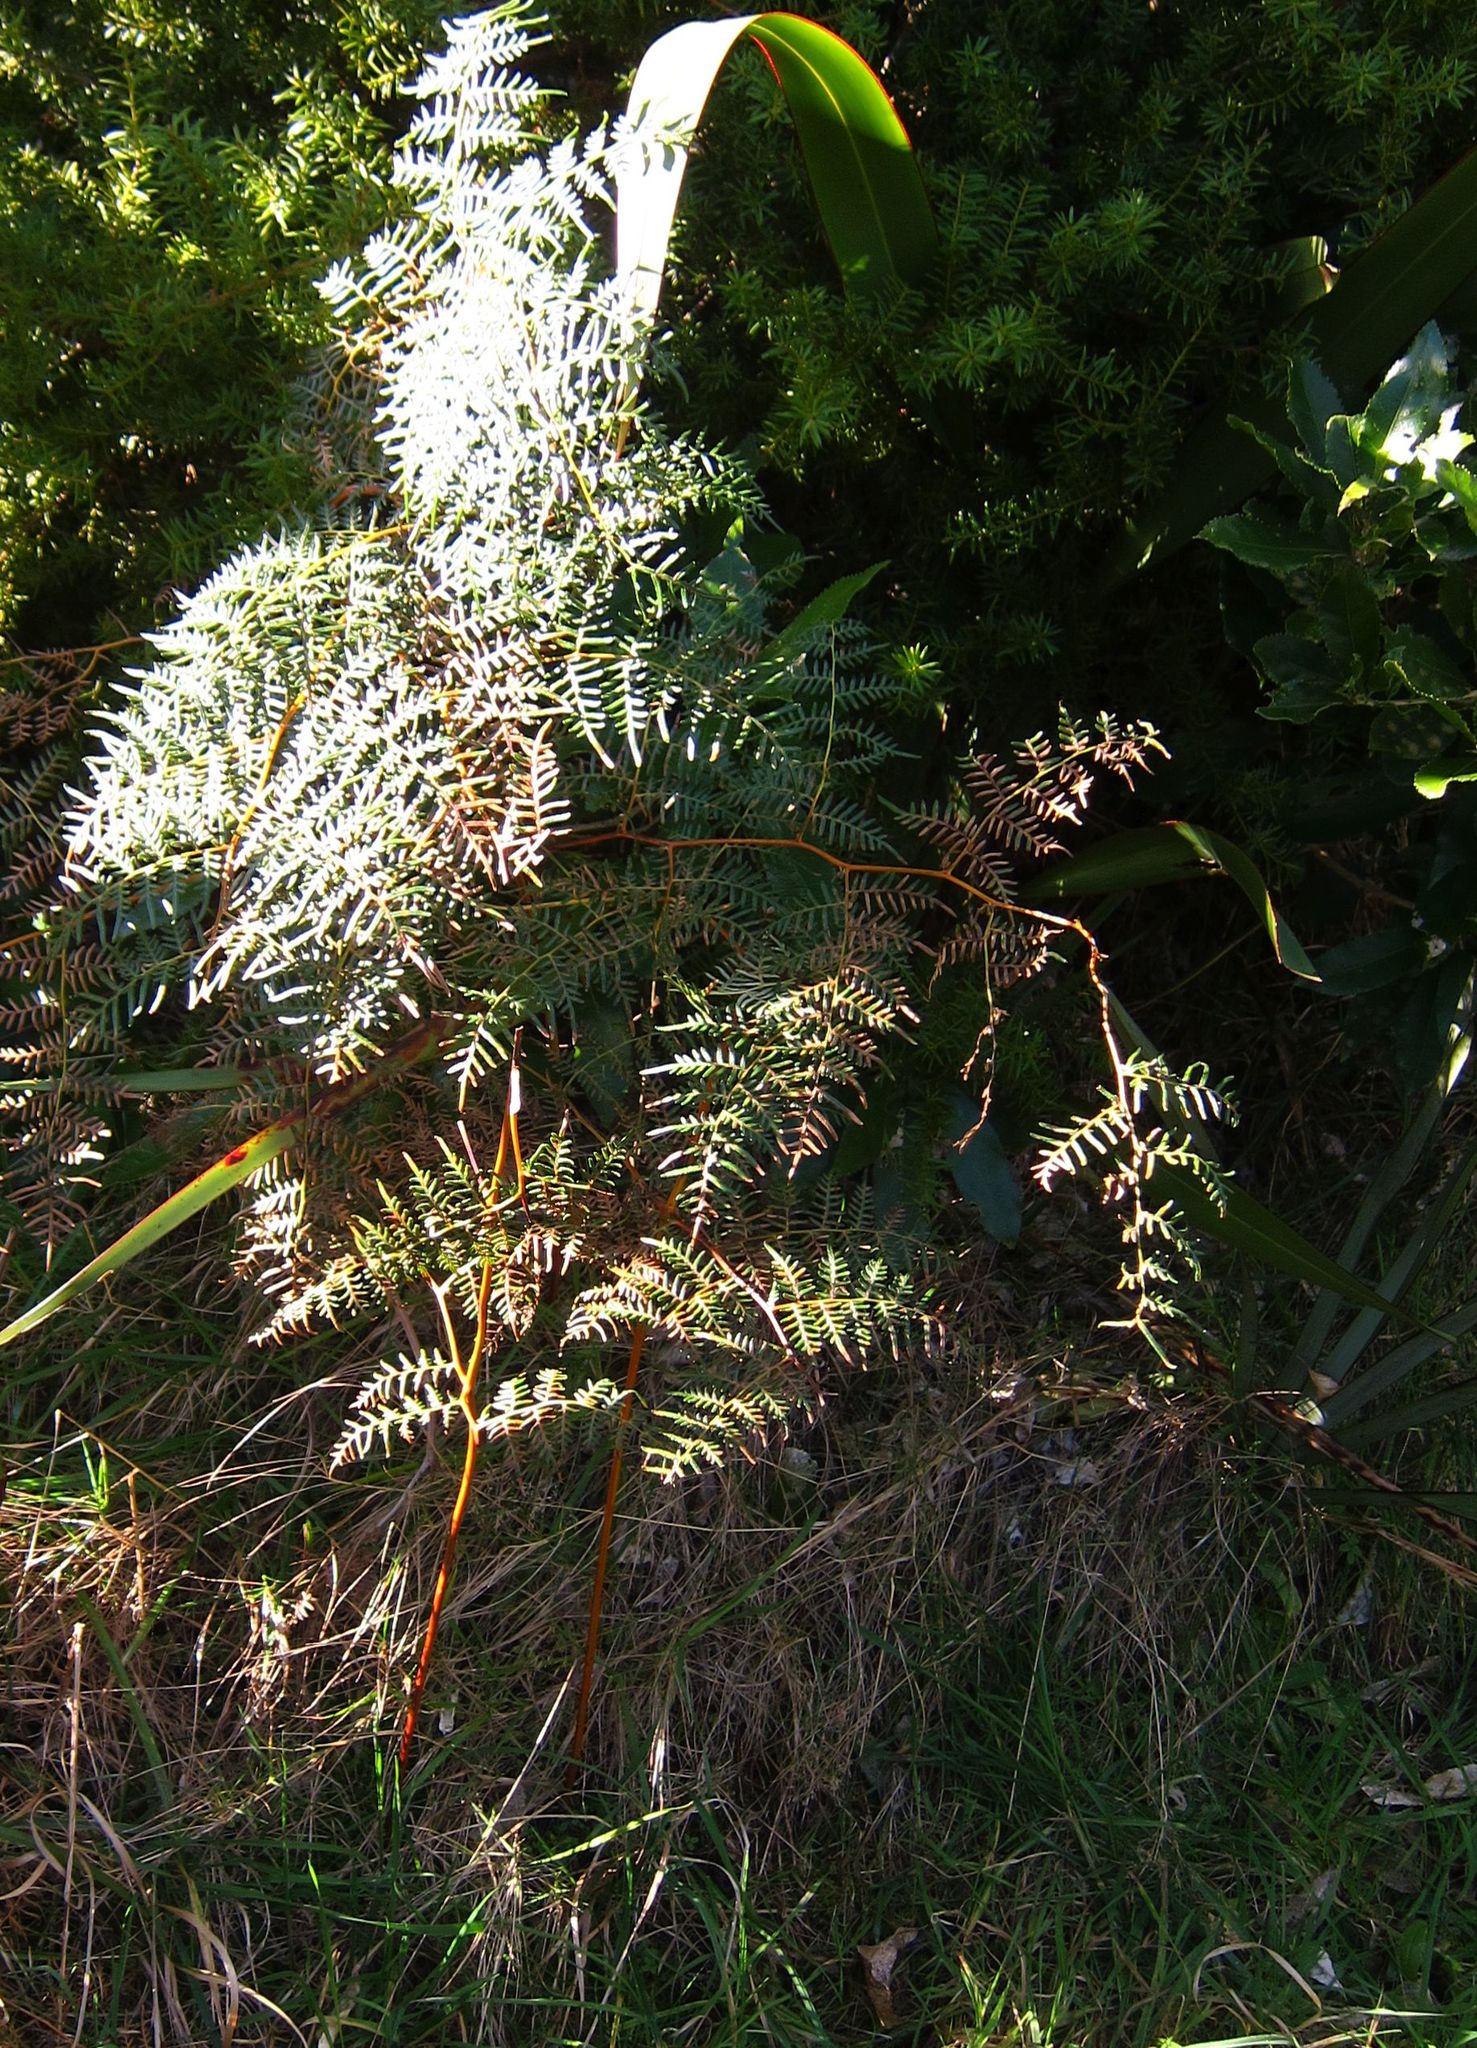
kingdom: Plantae
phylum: Tracheophyta
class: Polypodiopsida
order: Polypodiales
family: Dennstaedtiaceae
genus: Pteridium
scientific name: Pteridium esculentum
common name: Bracken fern
